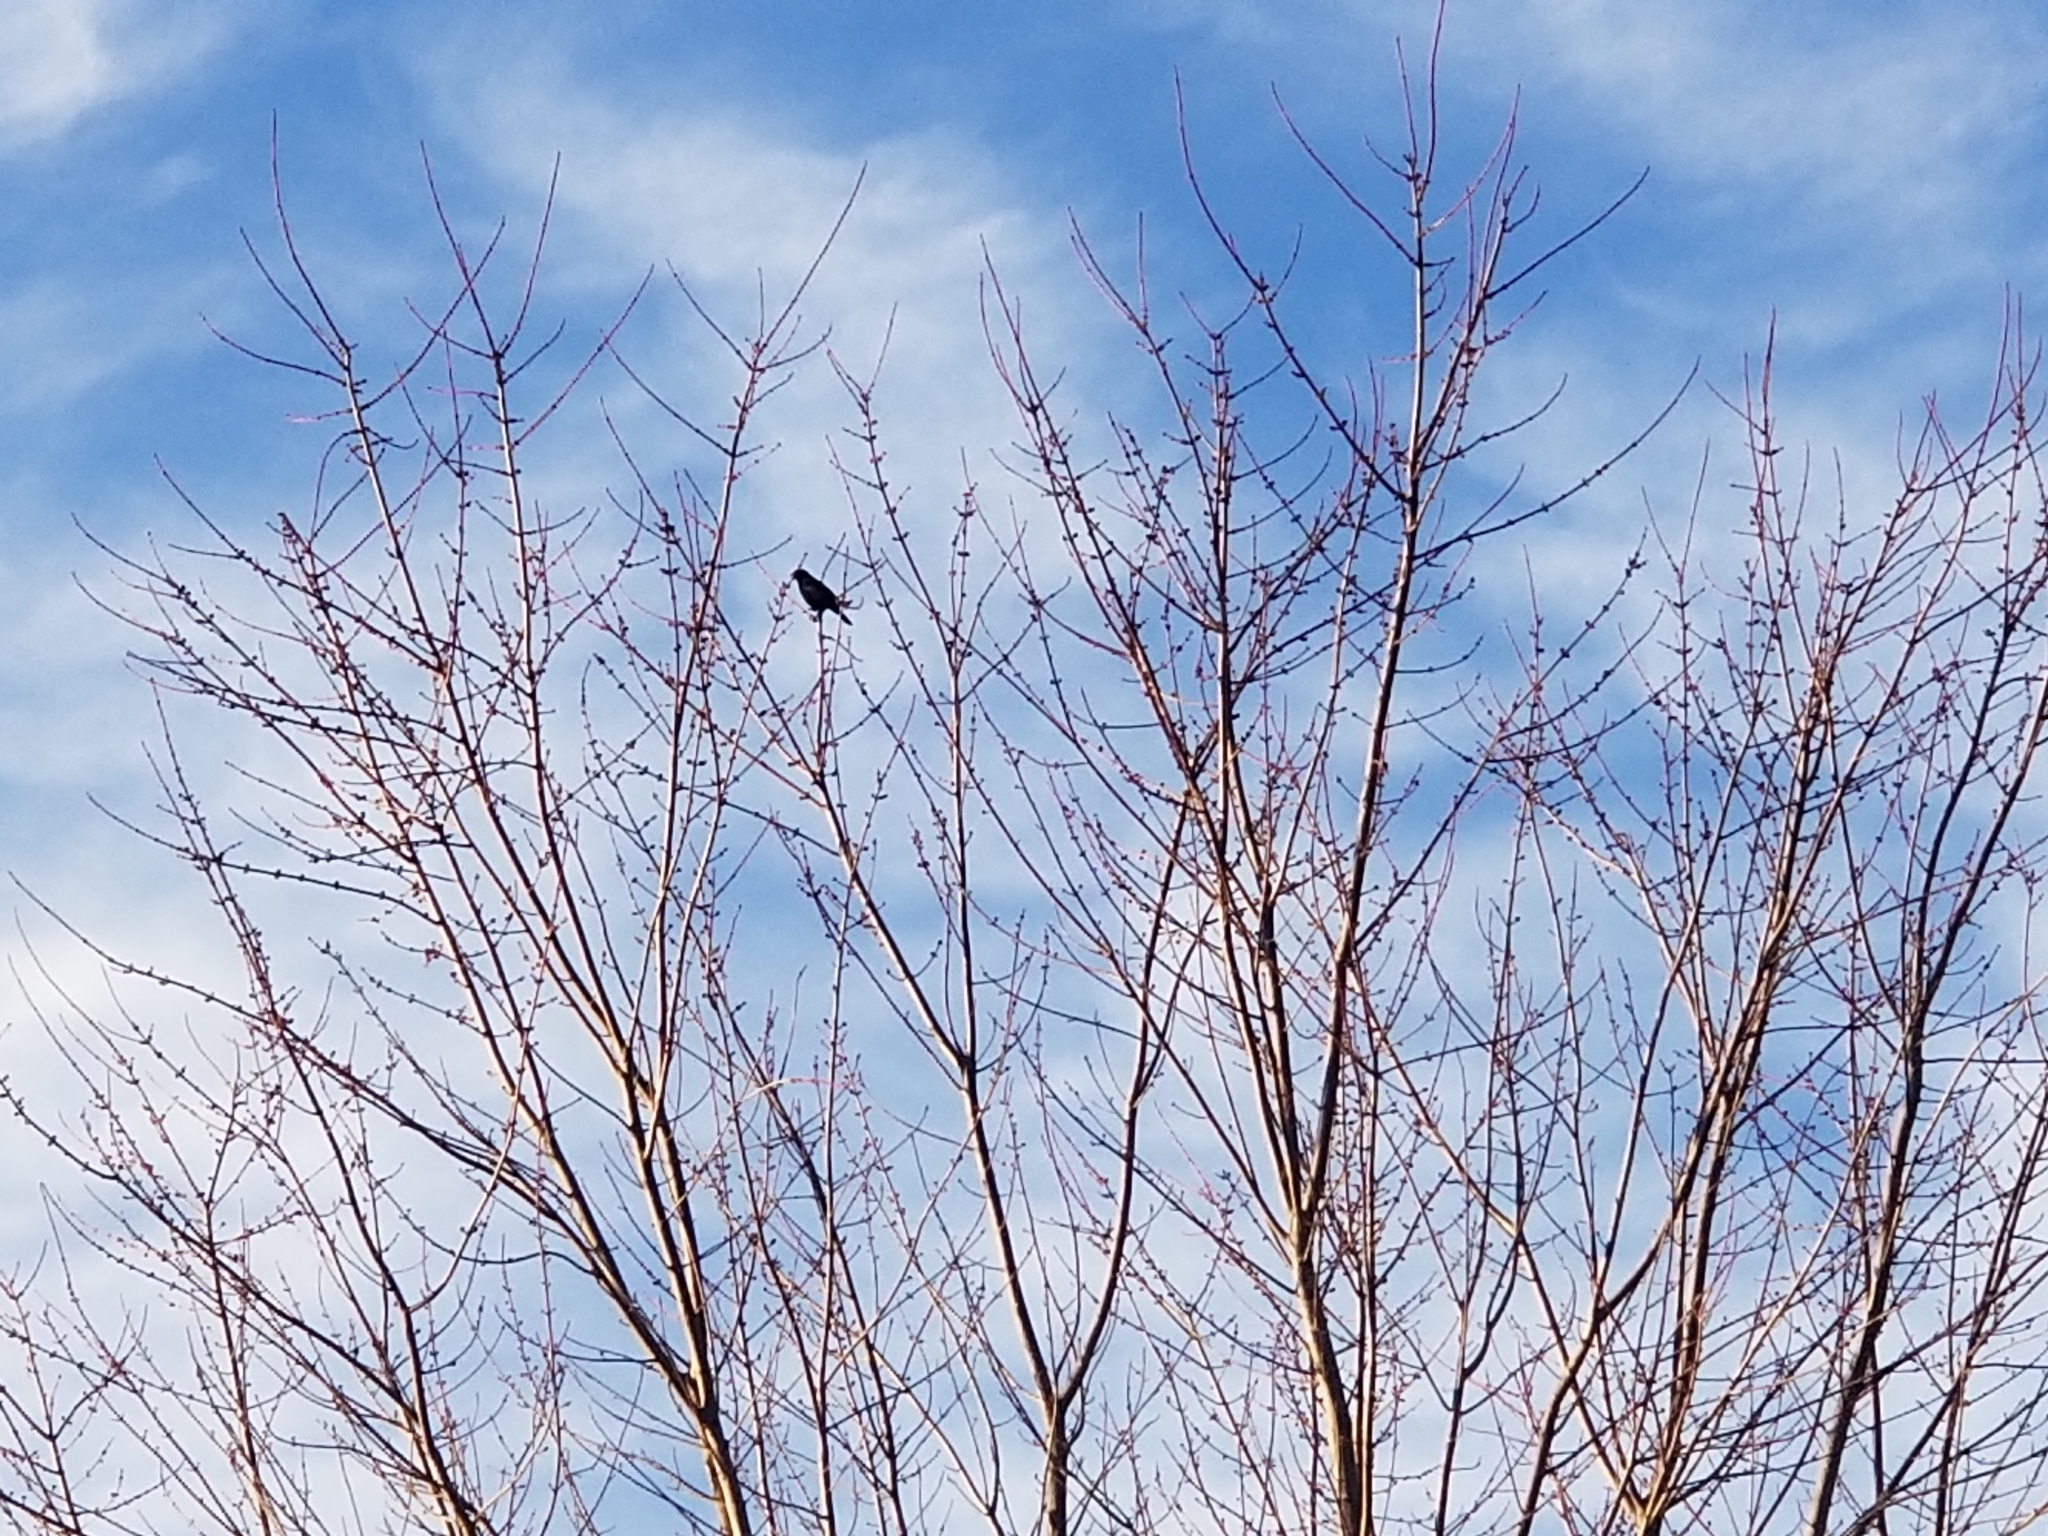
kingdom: Animalia
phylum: Chordata
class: Aves
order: Passeriformes
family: Icteridae
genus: Agelaius
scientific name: Agelaius phoeniceus
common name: Red-winged blackbird
